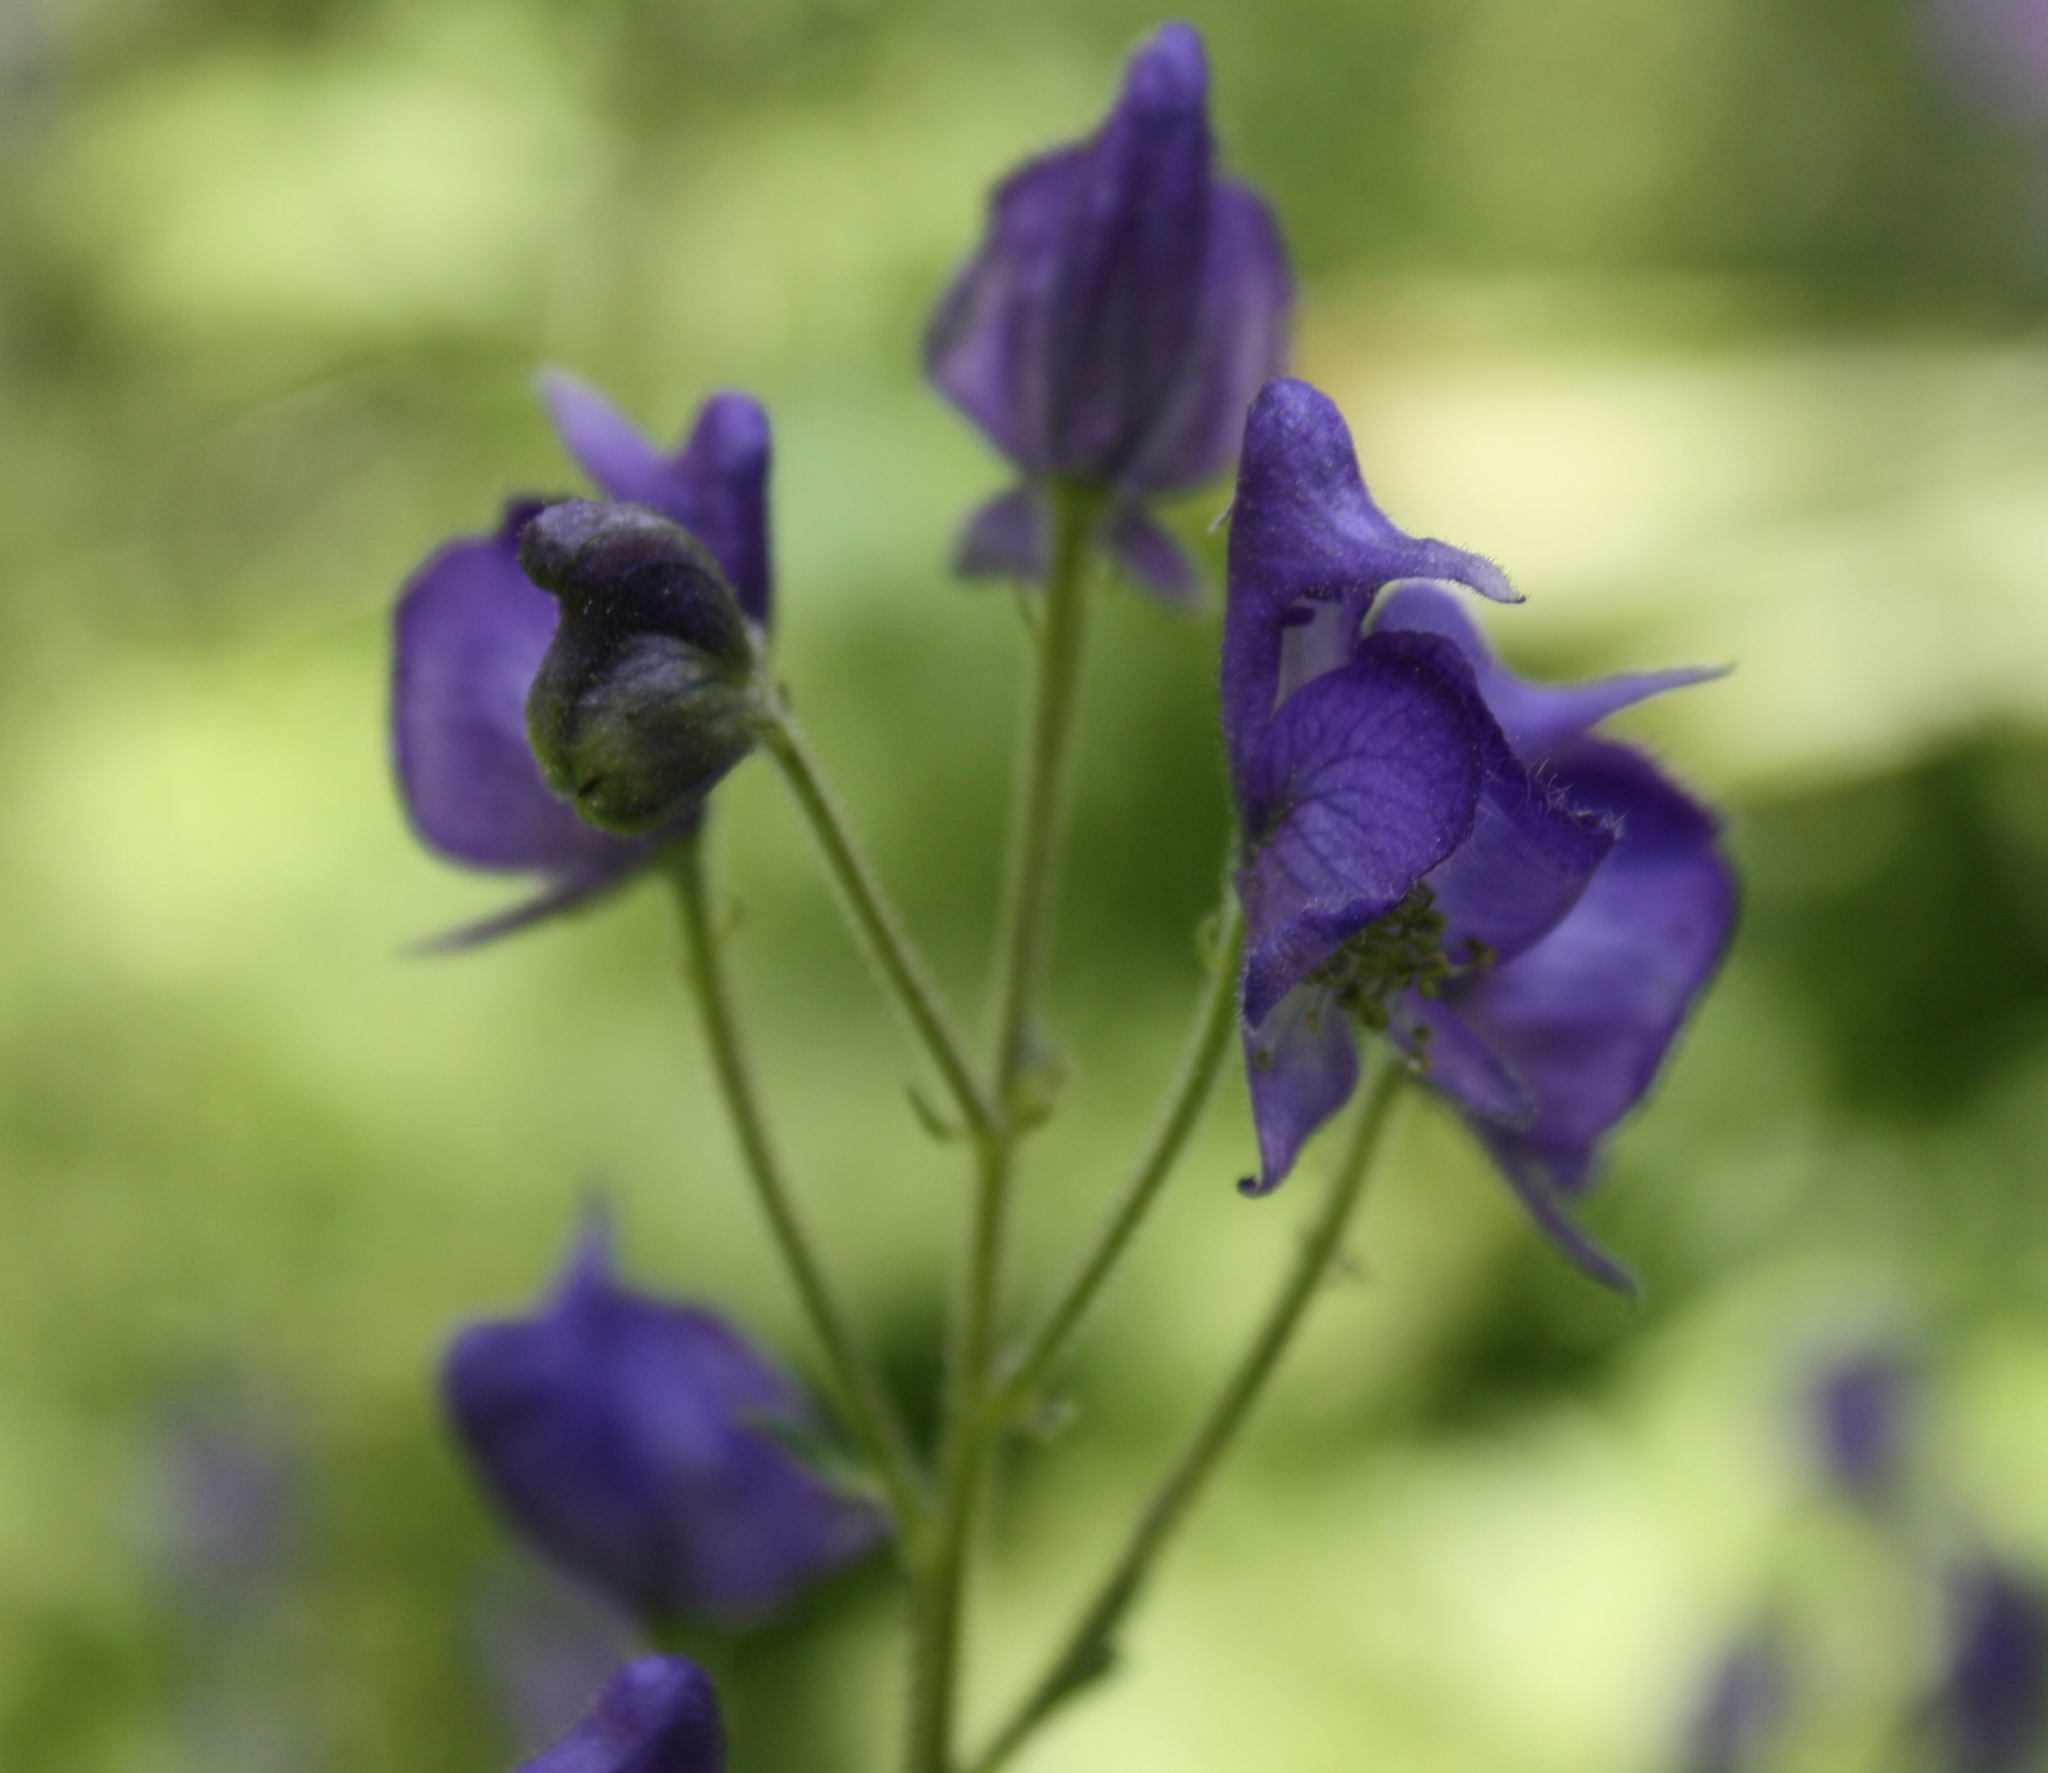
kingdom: Plantae
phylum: Tracheophyta
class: Magnoliopsida
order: Ranunculales
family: Ranunculaceae
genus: Aconitum
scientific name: Aconitum columbianum
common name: Columbia aconite
